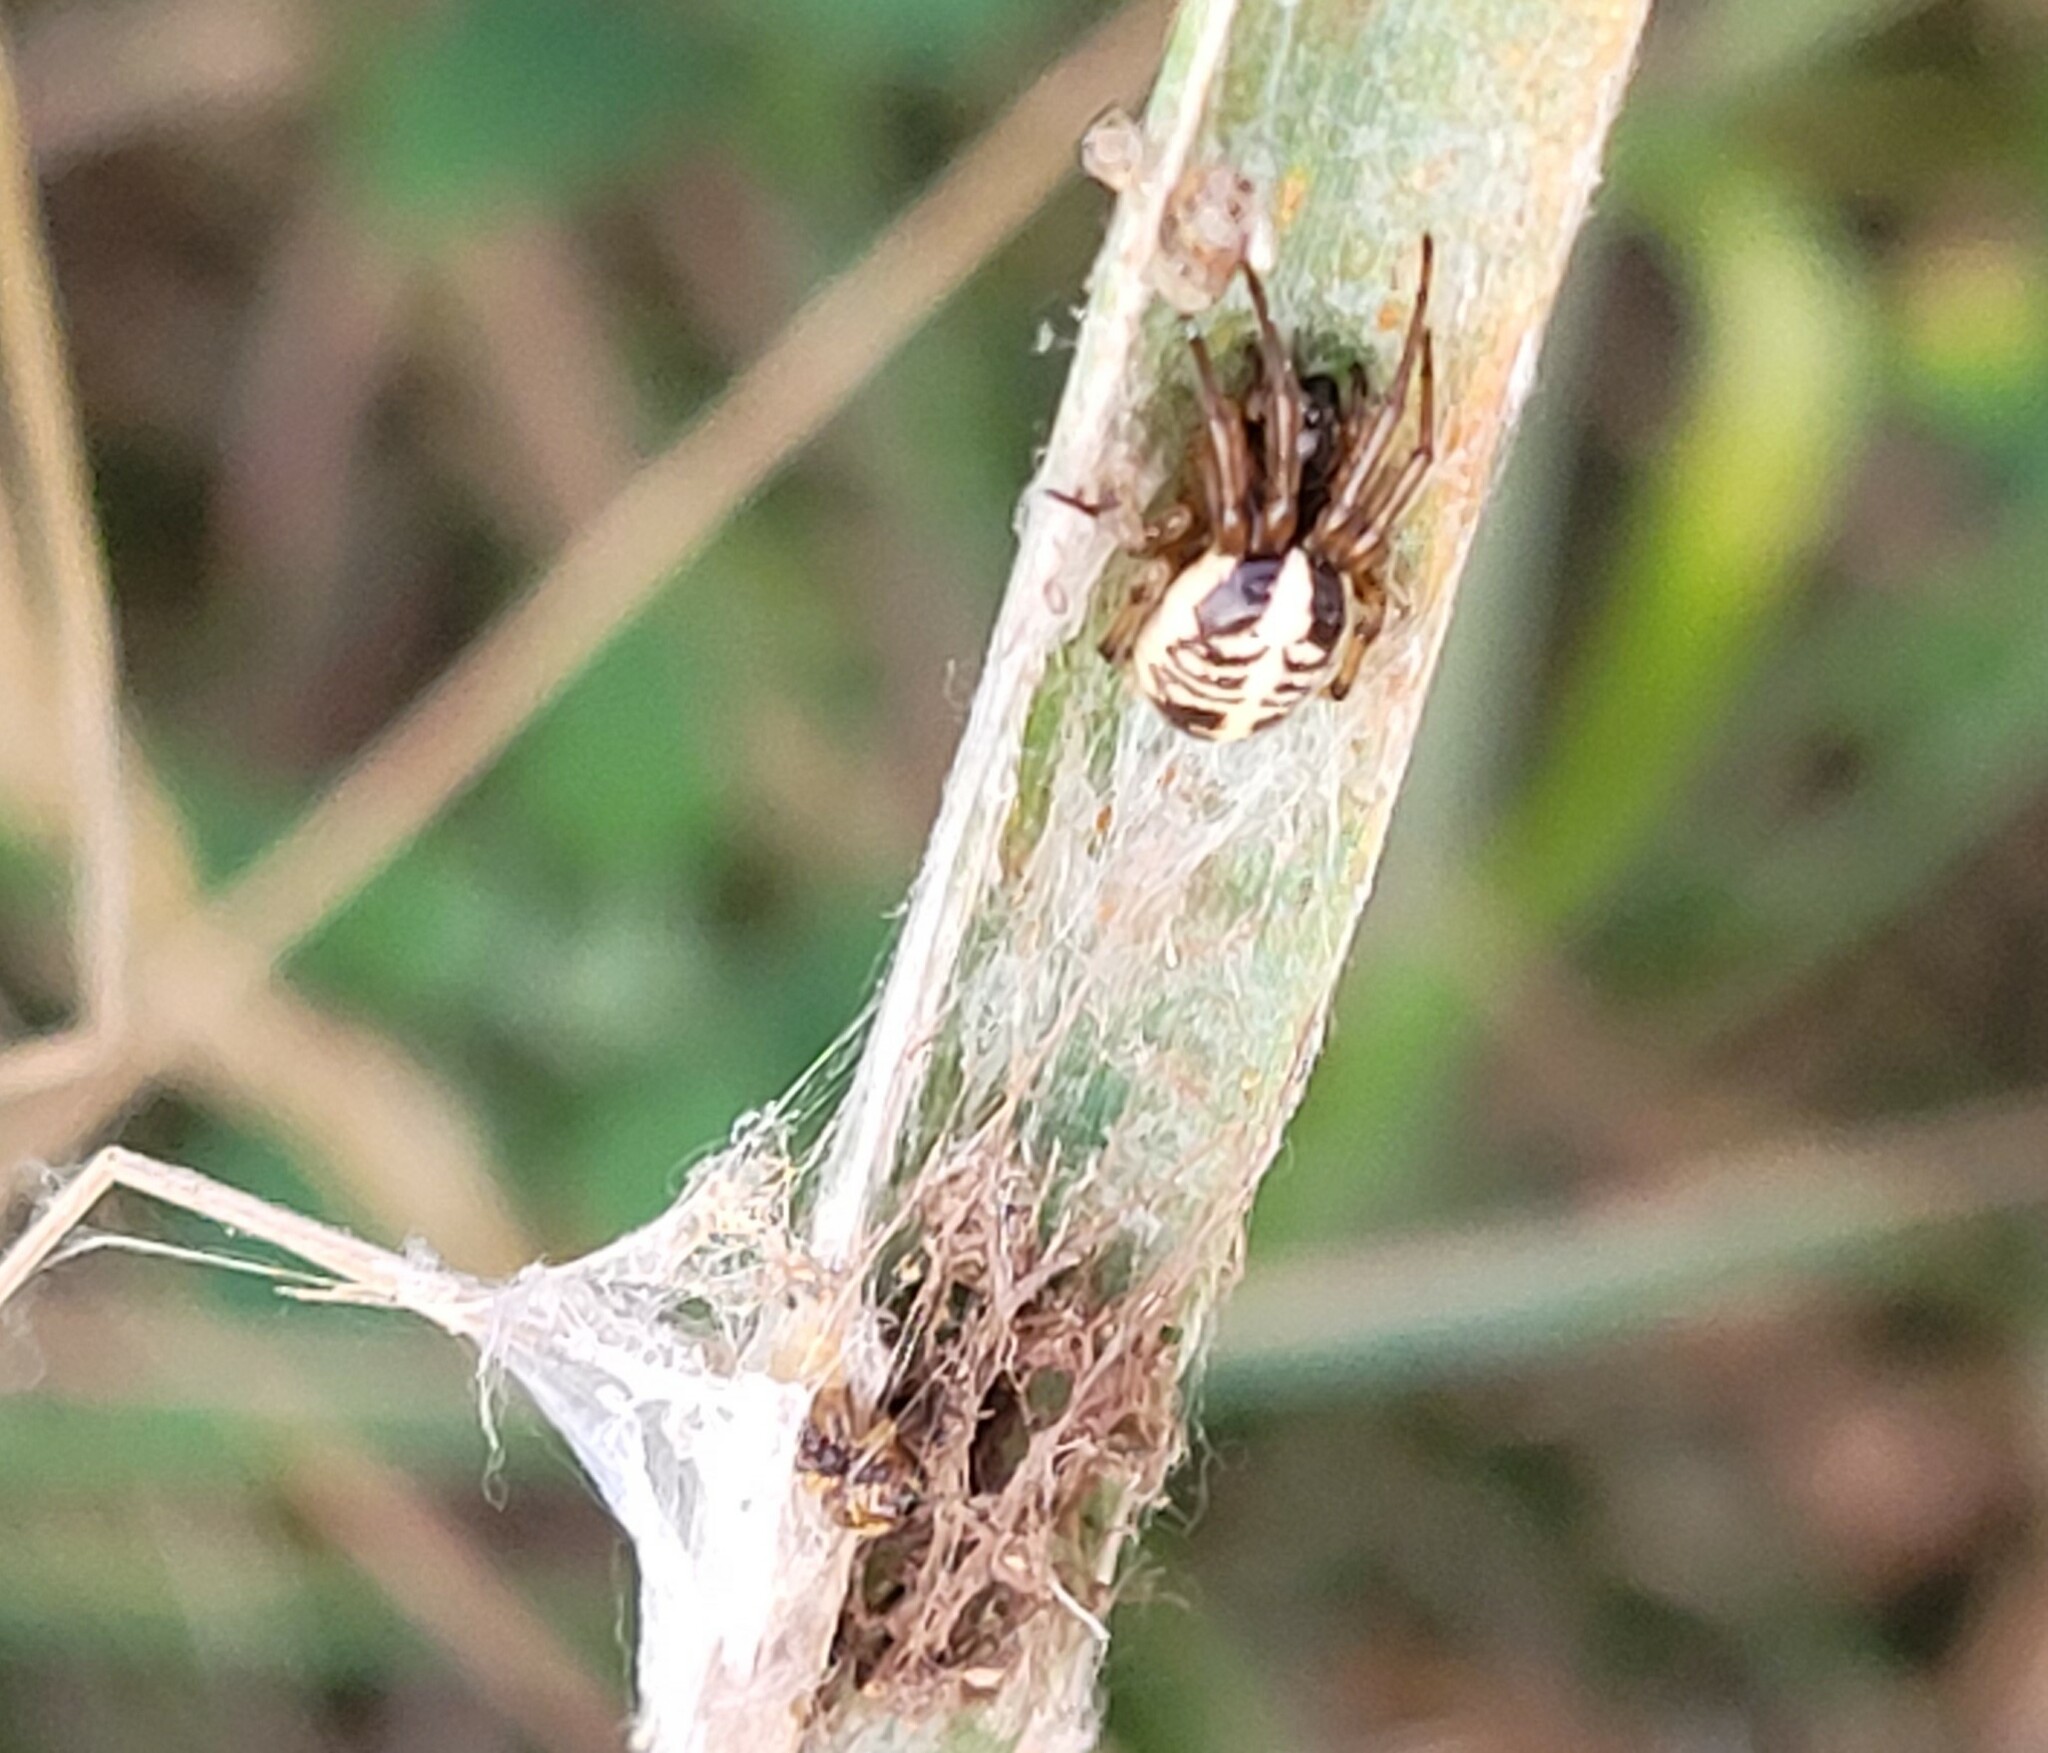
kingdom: Animalia
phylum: Arthropoda
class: Arachnida
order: Araneae
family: Araneidae
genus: Singa
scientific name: Singa hamata
